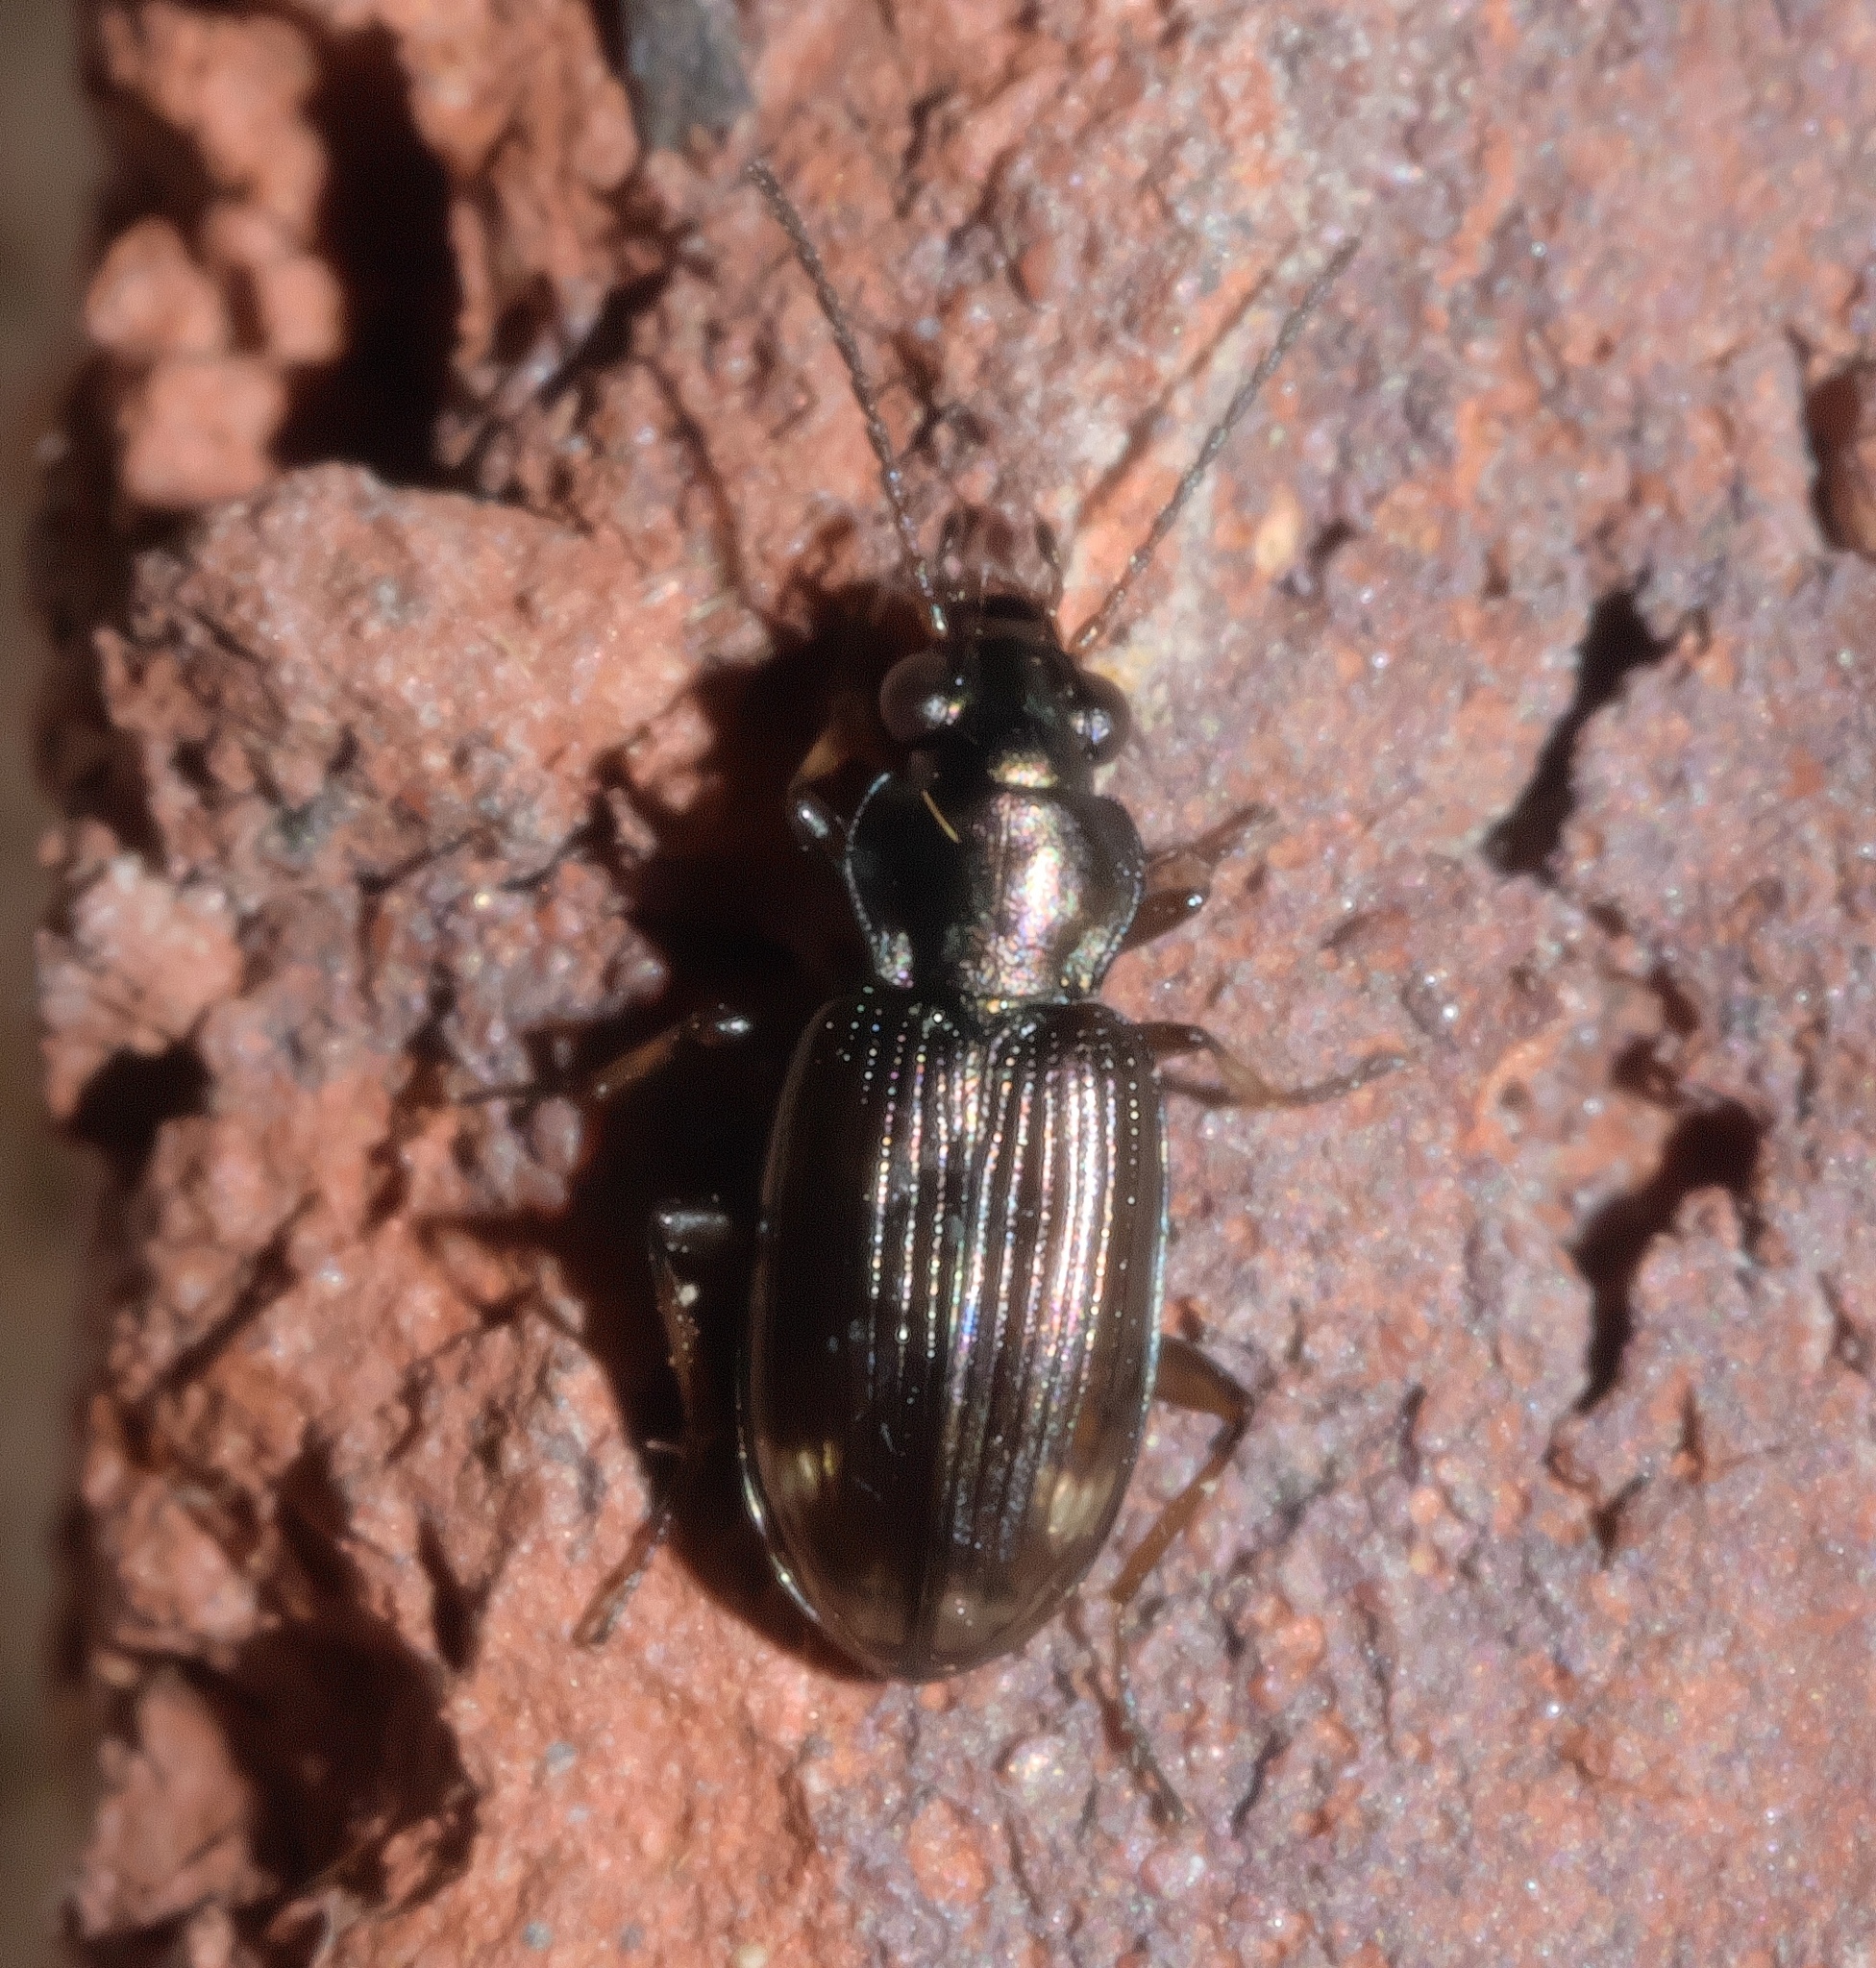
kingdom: Animalia
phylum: Arthropoda
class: Insecta
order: Coleoptera
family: Carabidae
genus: Bembidion
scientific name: Bembidion rapidum
